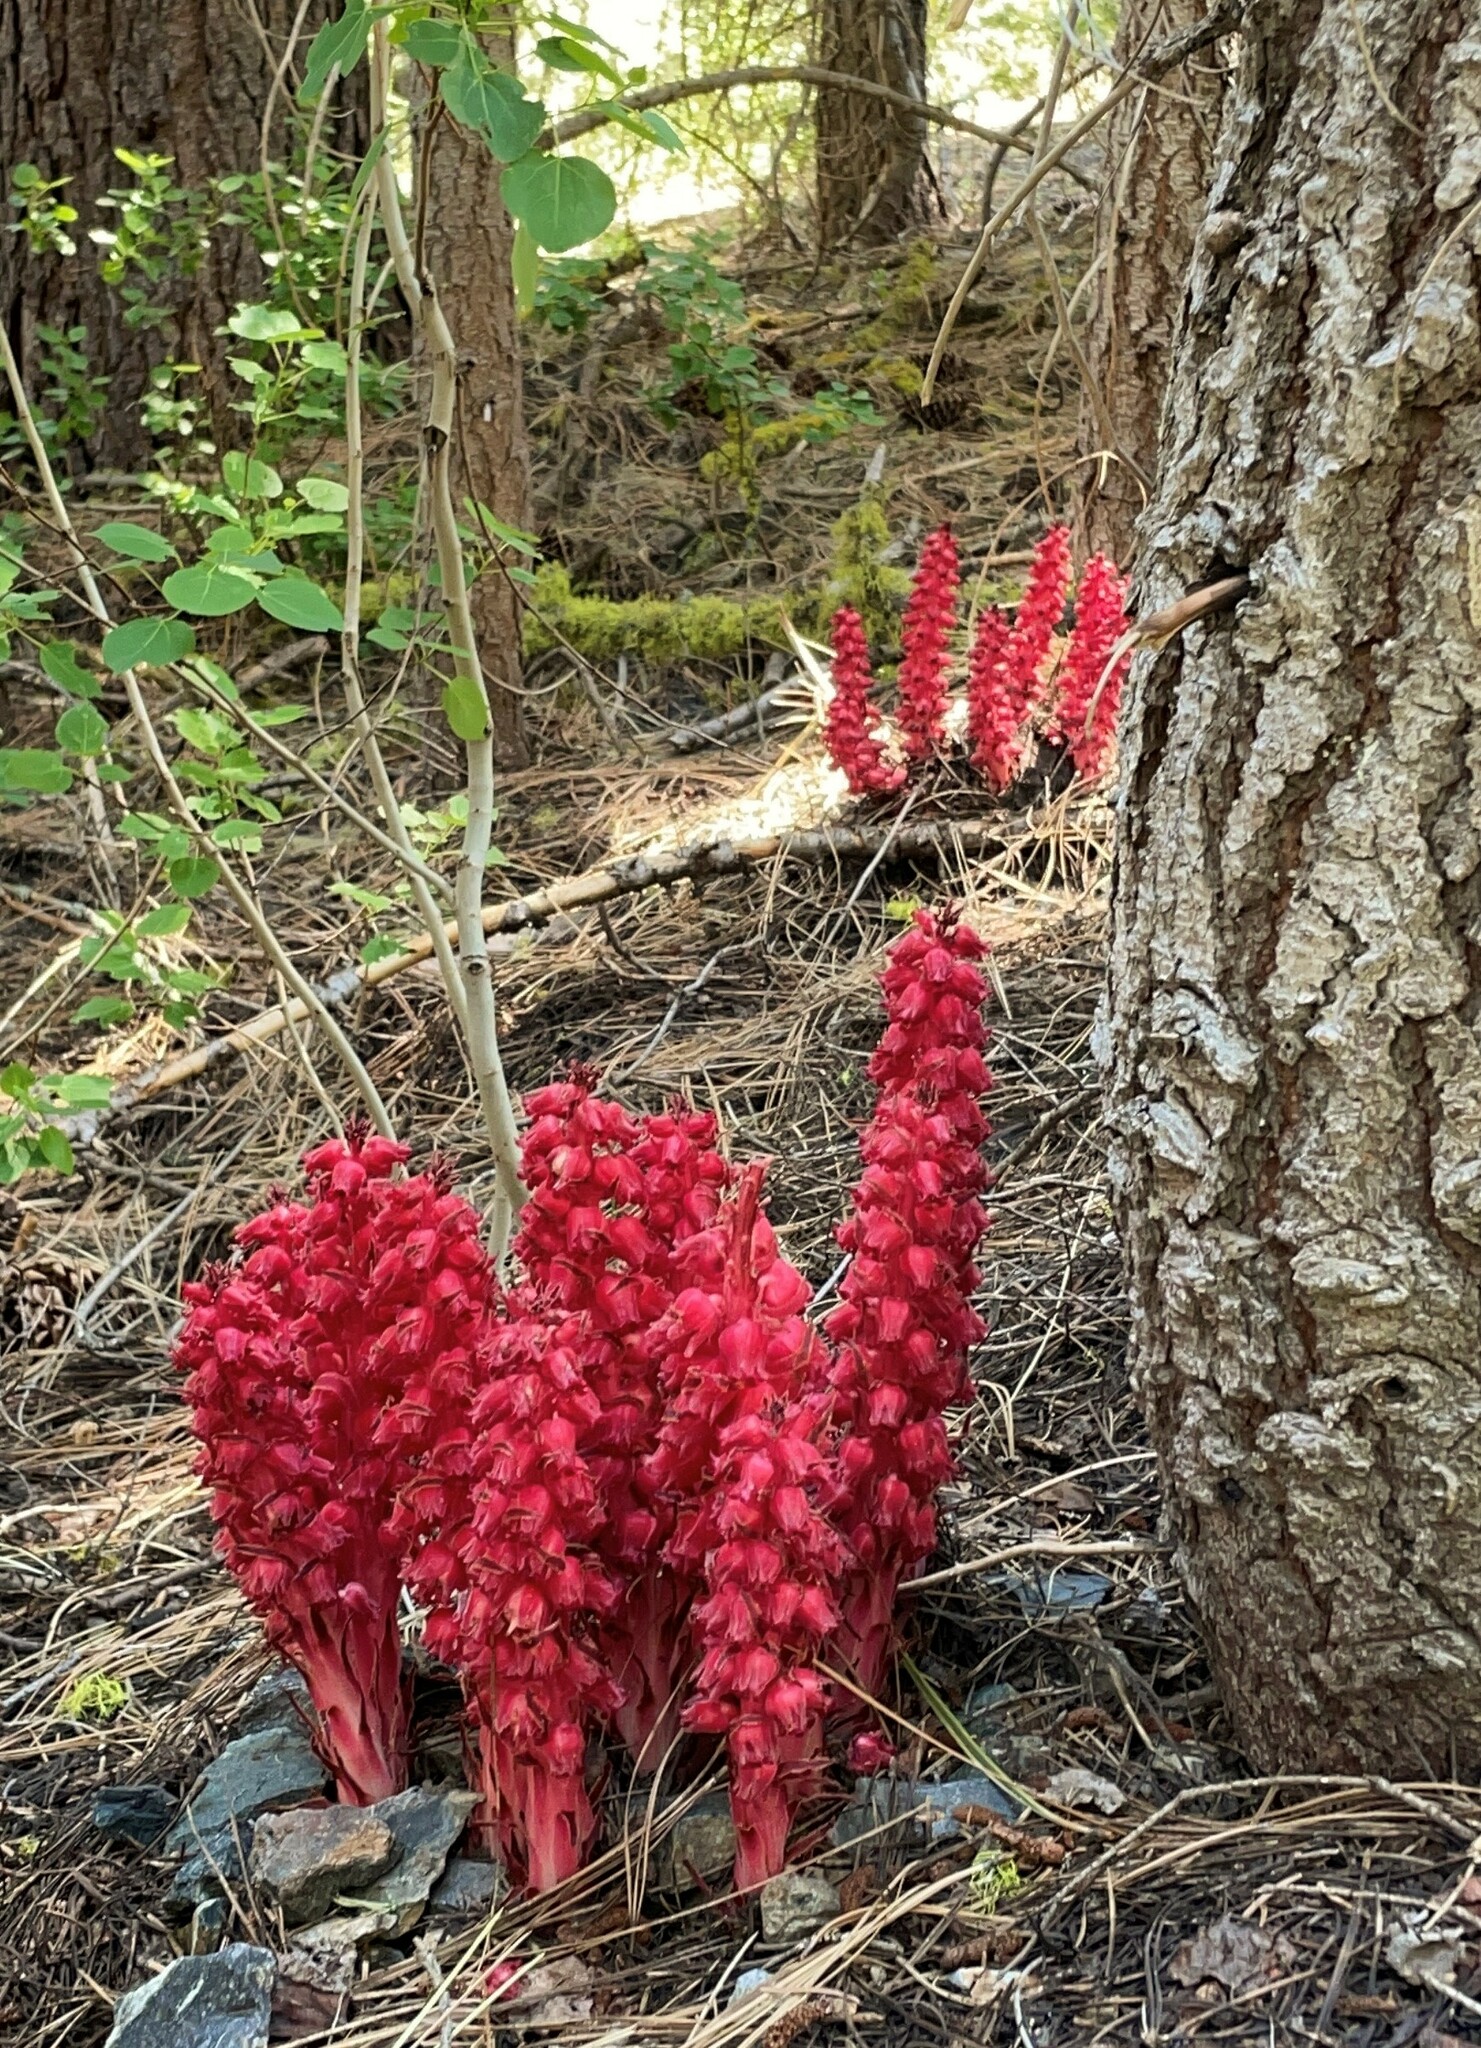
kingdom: Plantae
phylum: Tracheophyta
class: Magnoliopsida
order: Ericales
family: Ericaceae
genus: Sarcodes
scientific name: Sarcodes sanguinea
